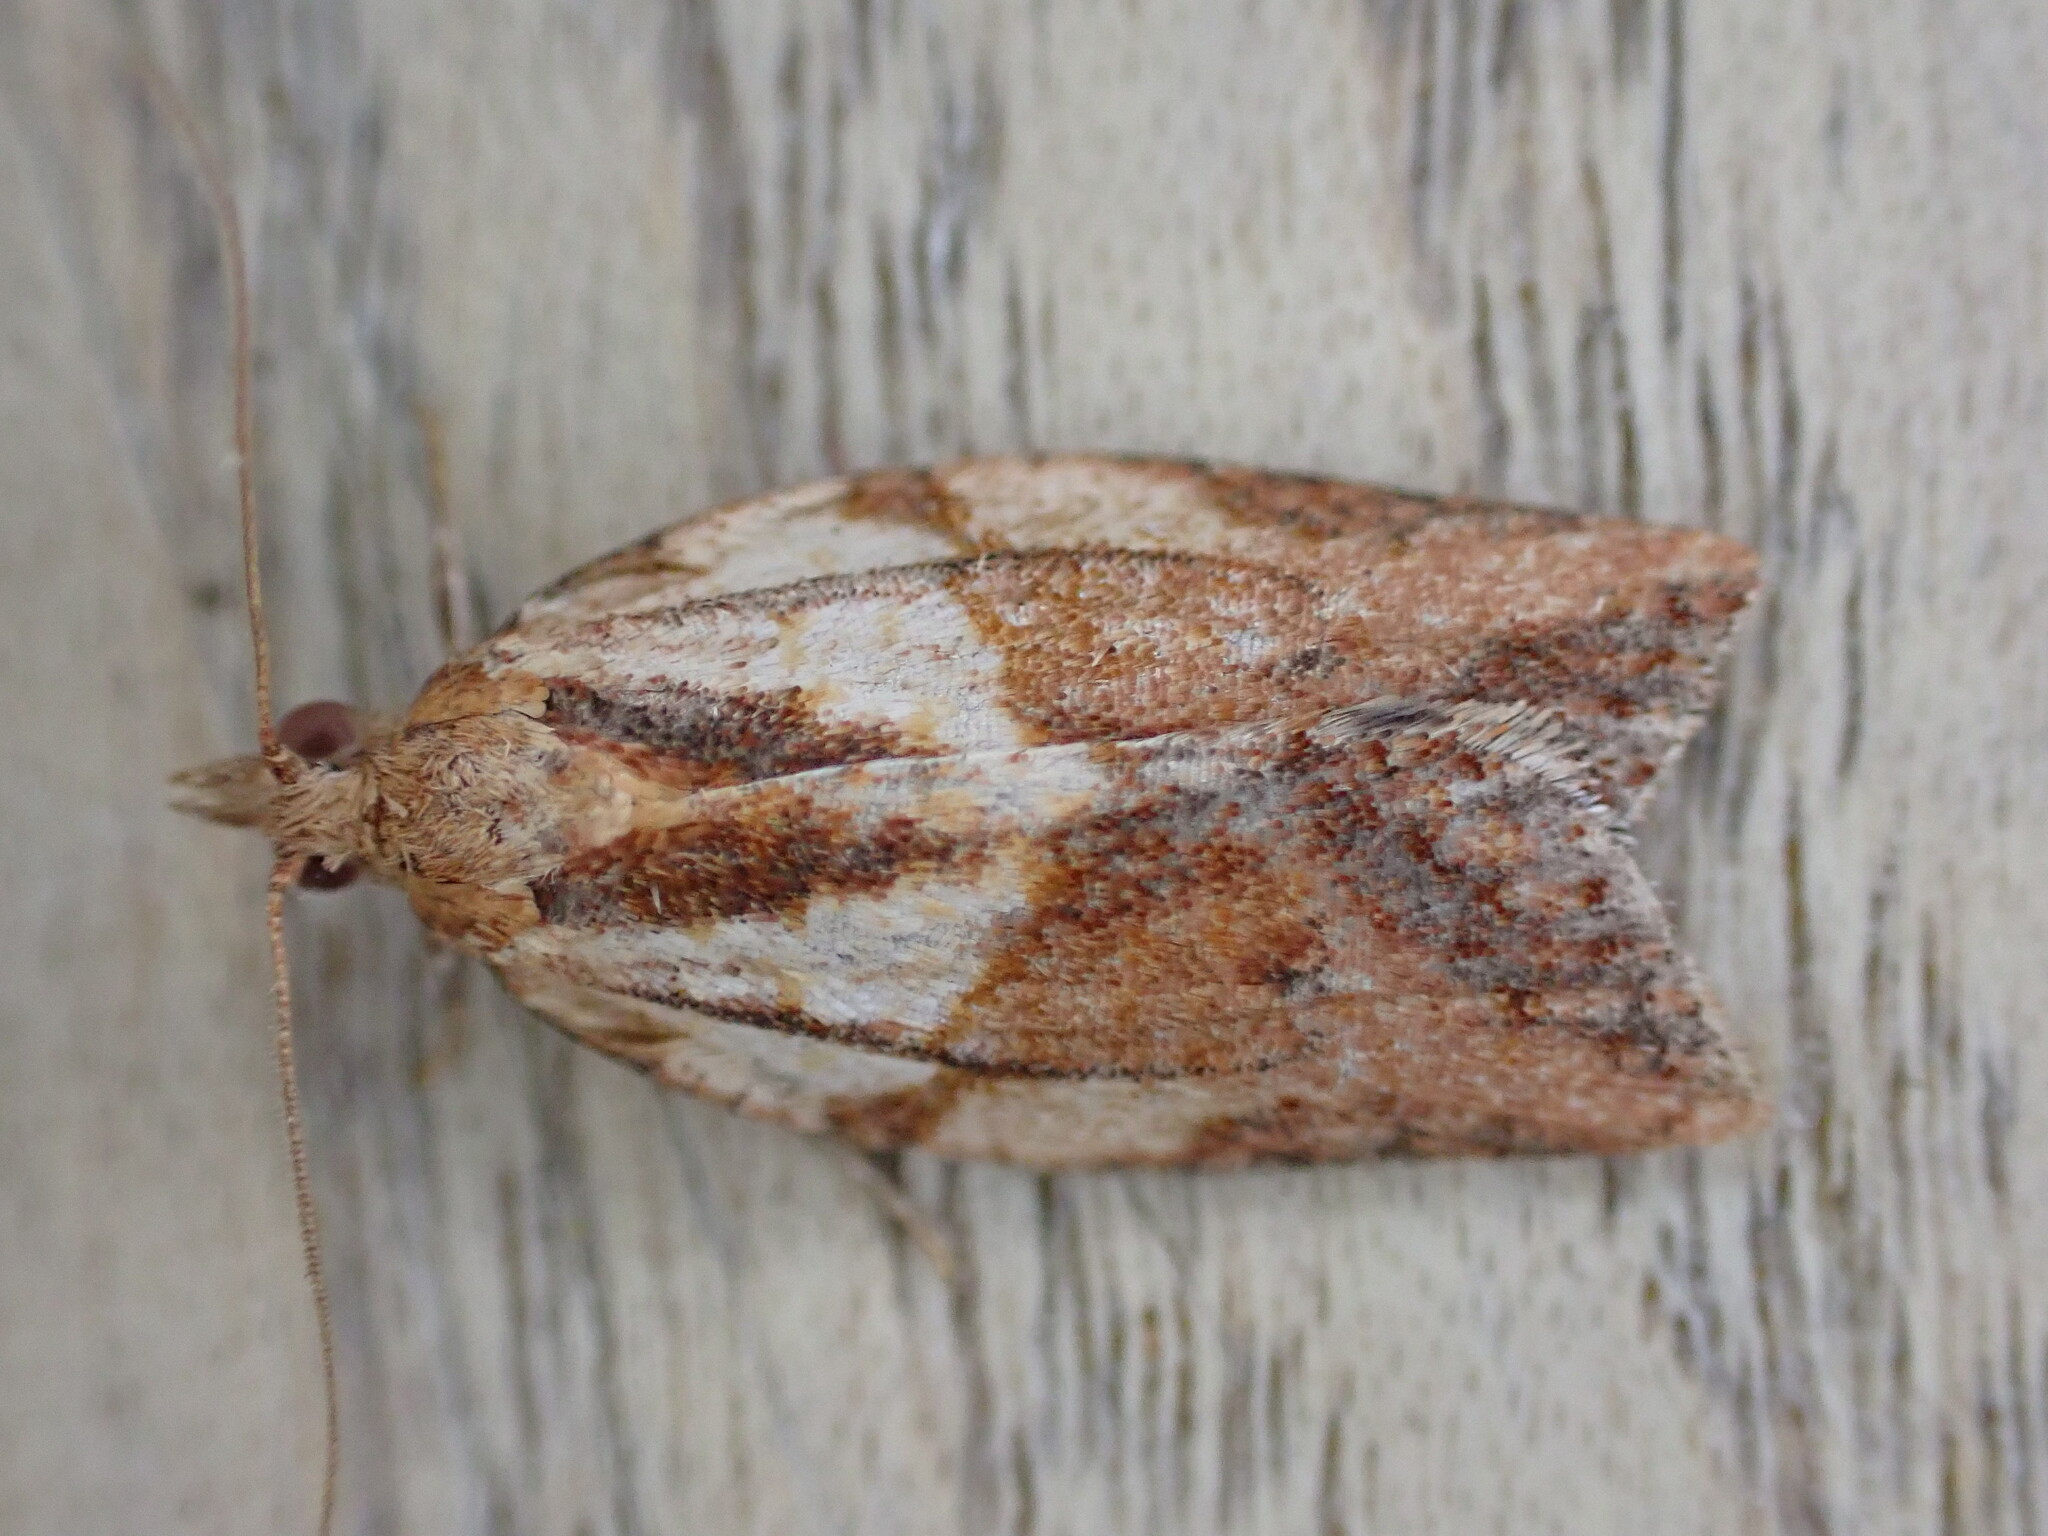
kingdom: Animalia
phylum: Arthropoda
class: Insecta
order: Lepidoptera
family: Tortricidae
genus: Epiphyas
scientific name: Epiphyas postvittana
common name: Light brown apple moth
